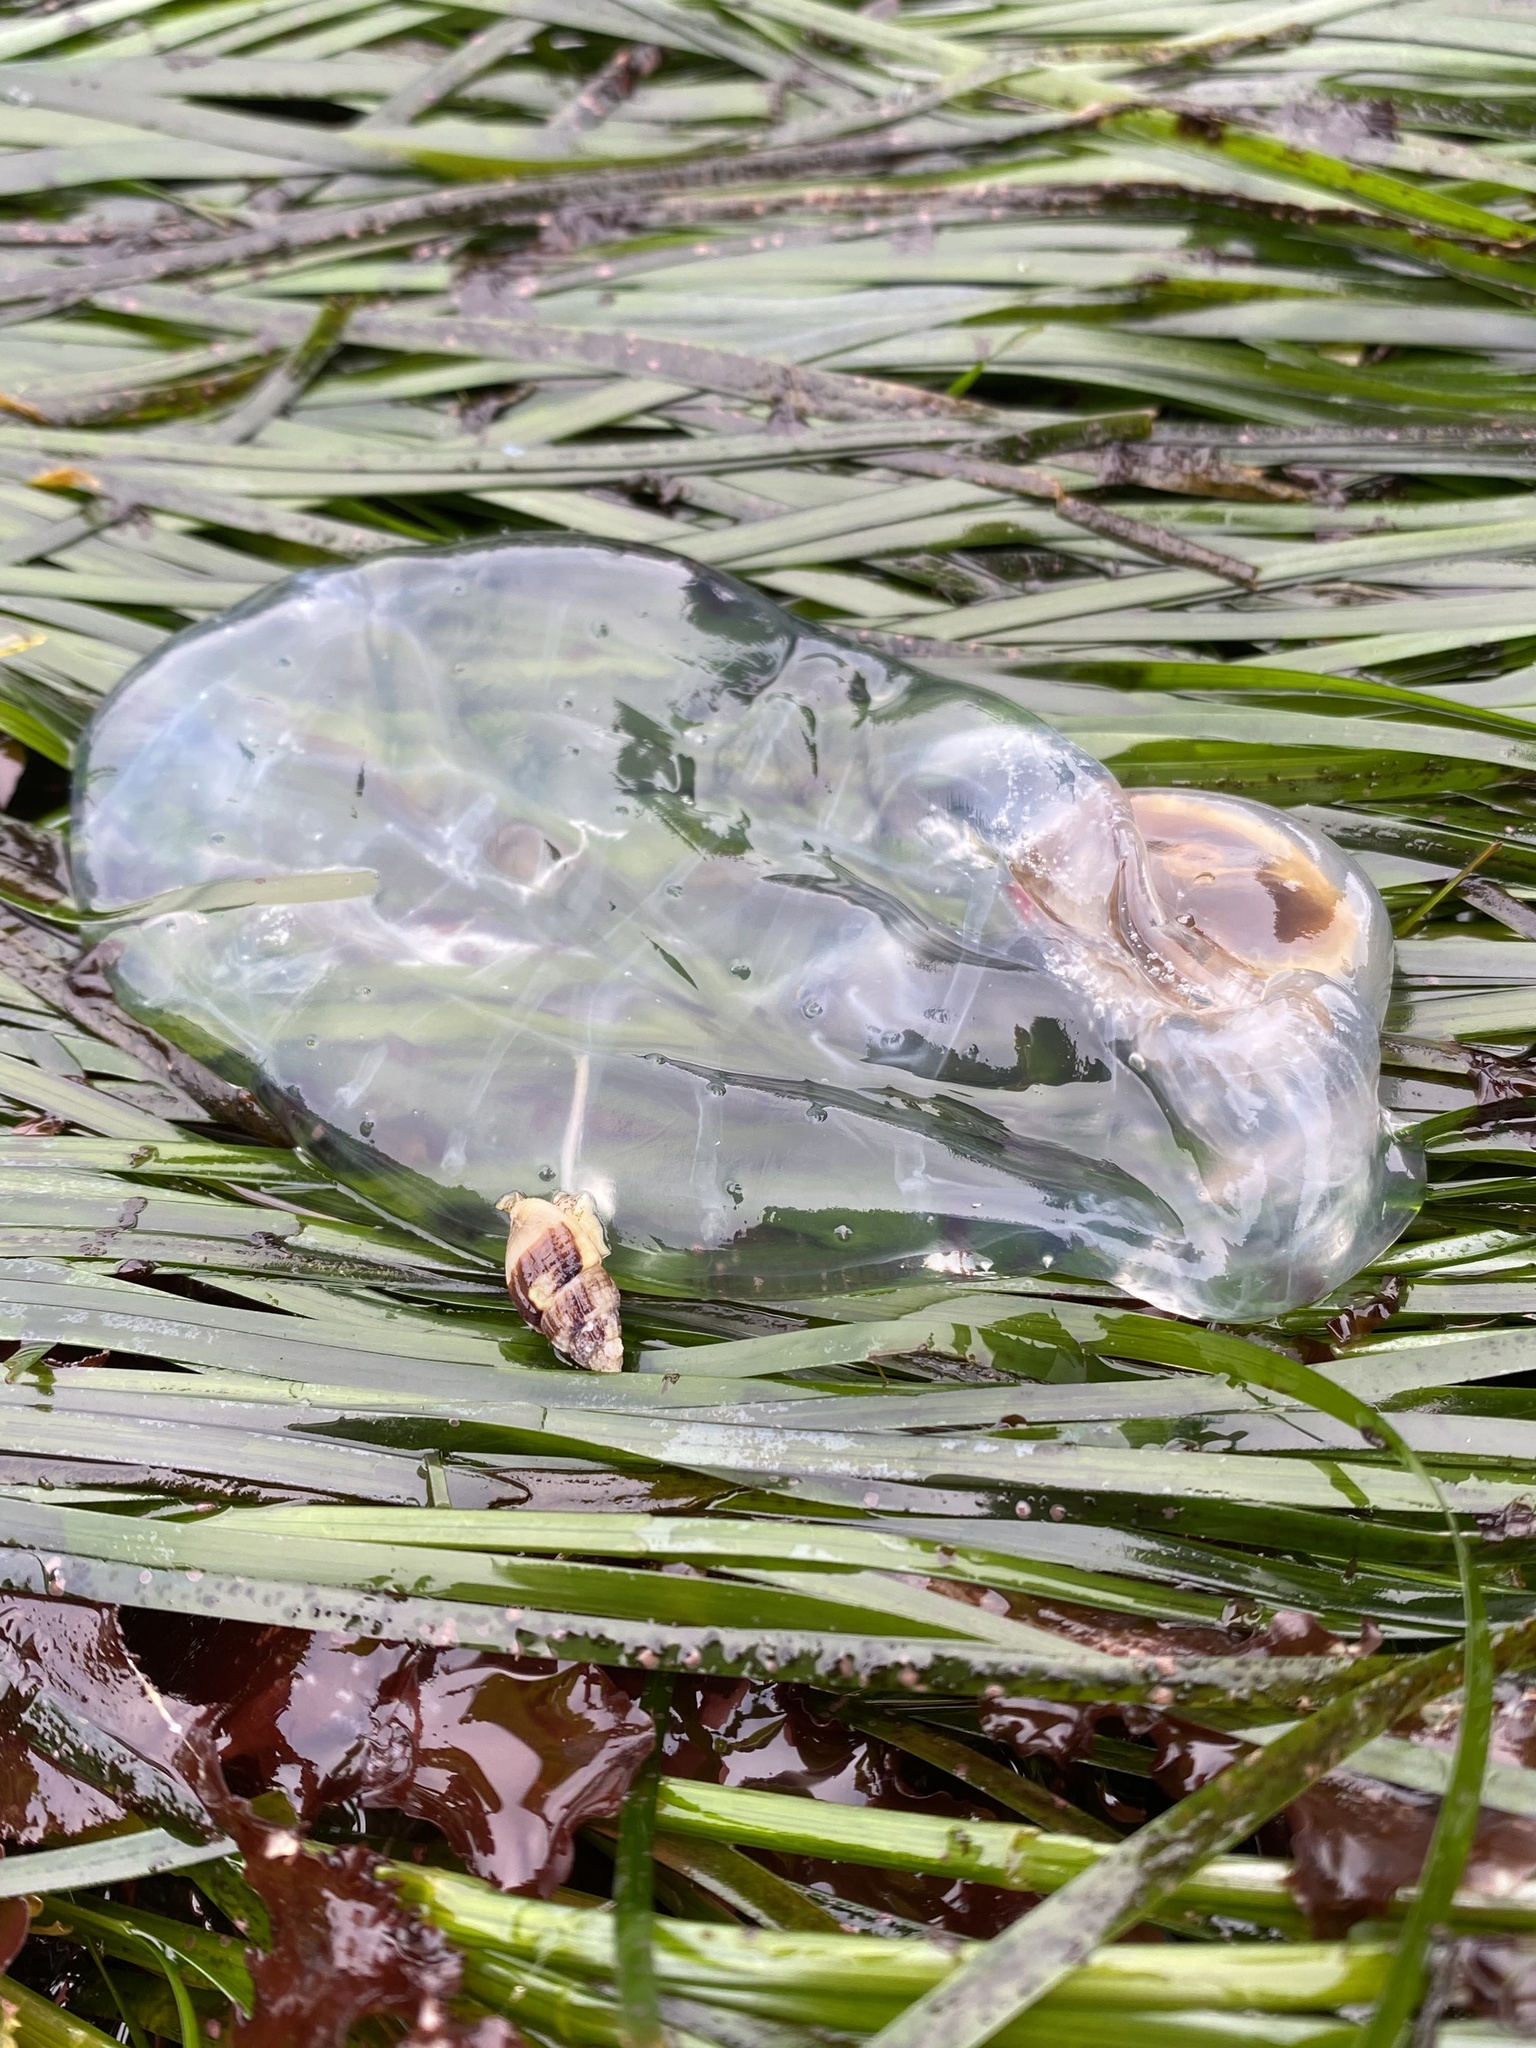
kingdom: Animalia
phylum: Chordata
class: Thaliacea
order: Salpida
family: Salpidae
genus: Thetys
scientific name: Thetys vagina
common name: Vagina salp
